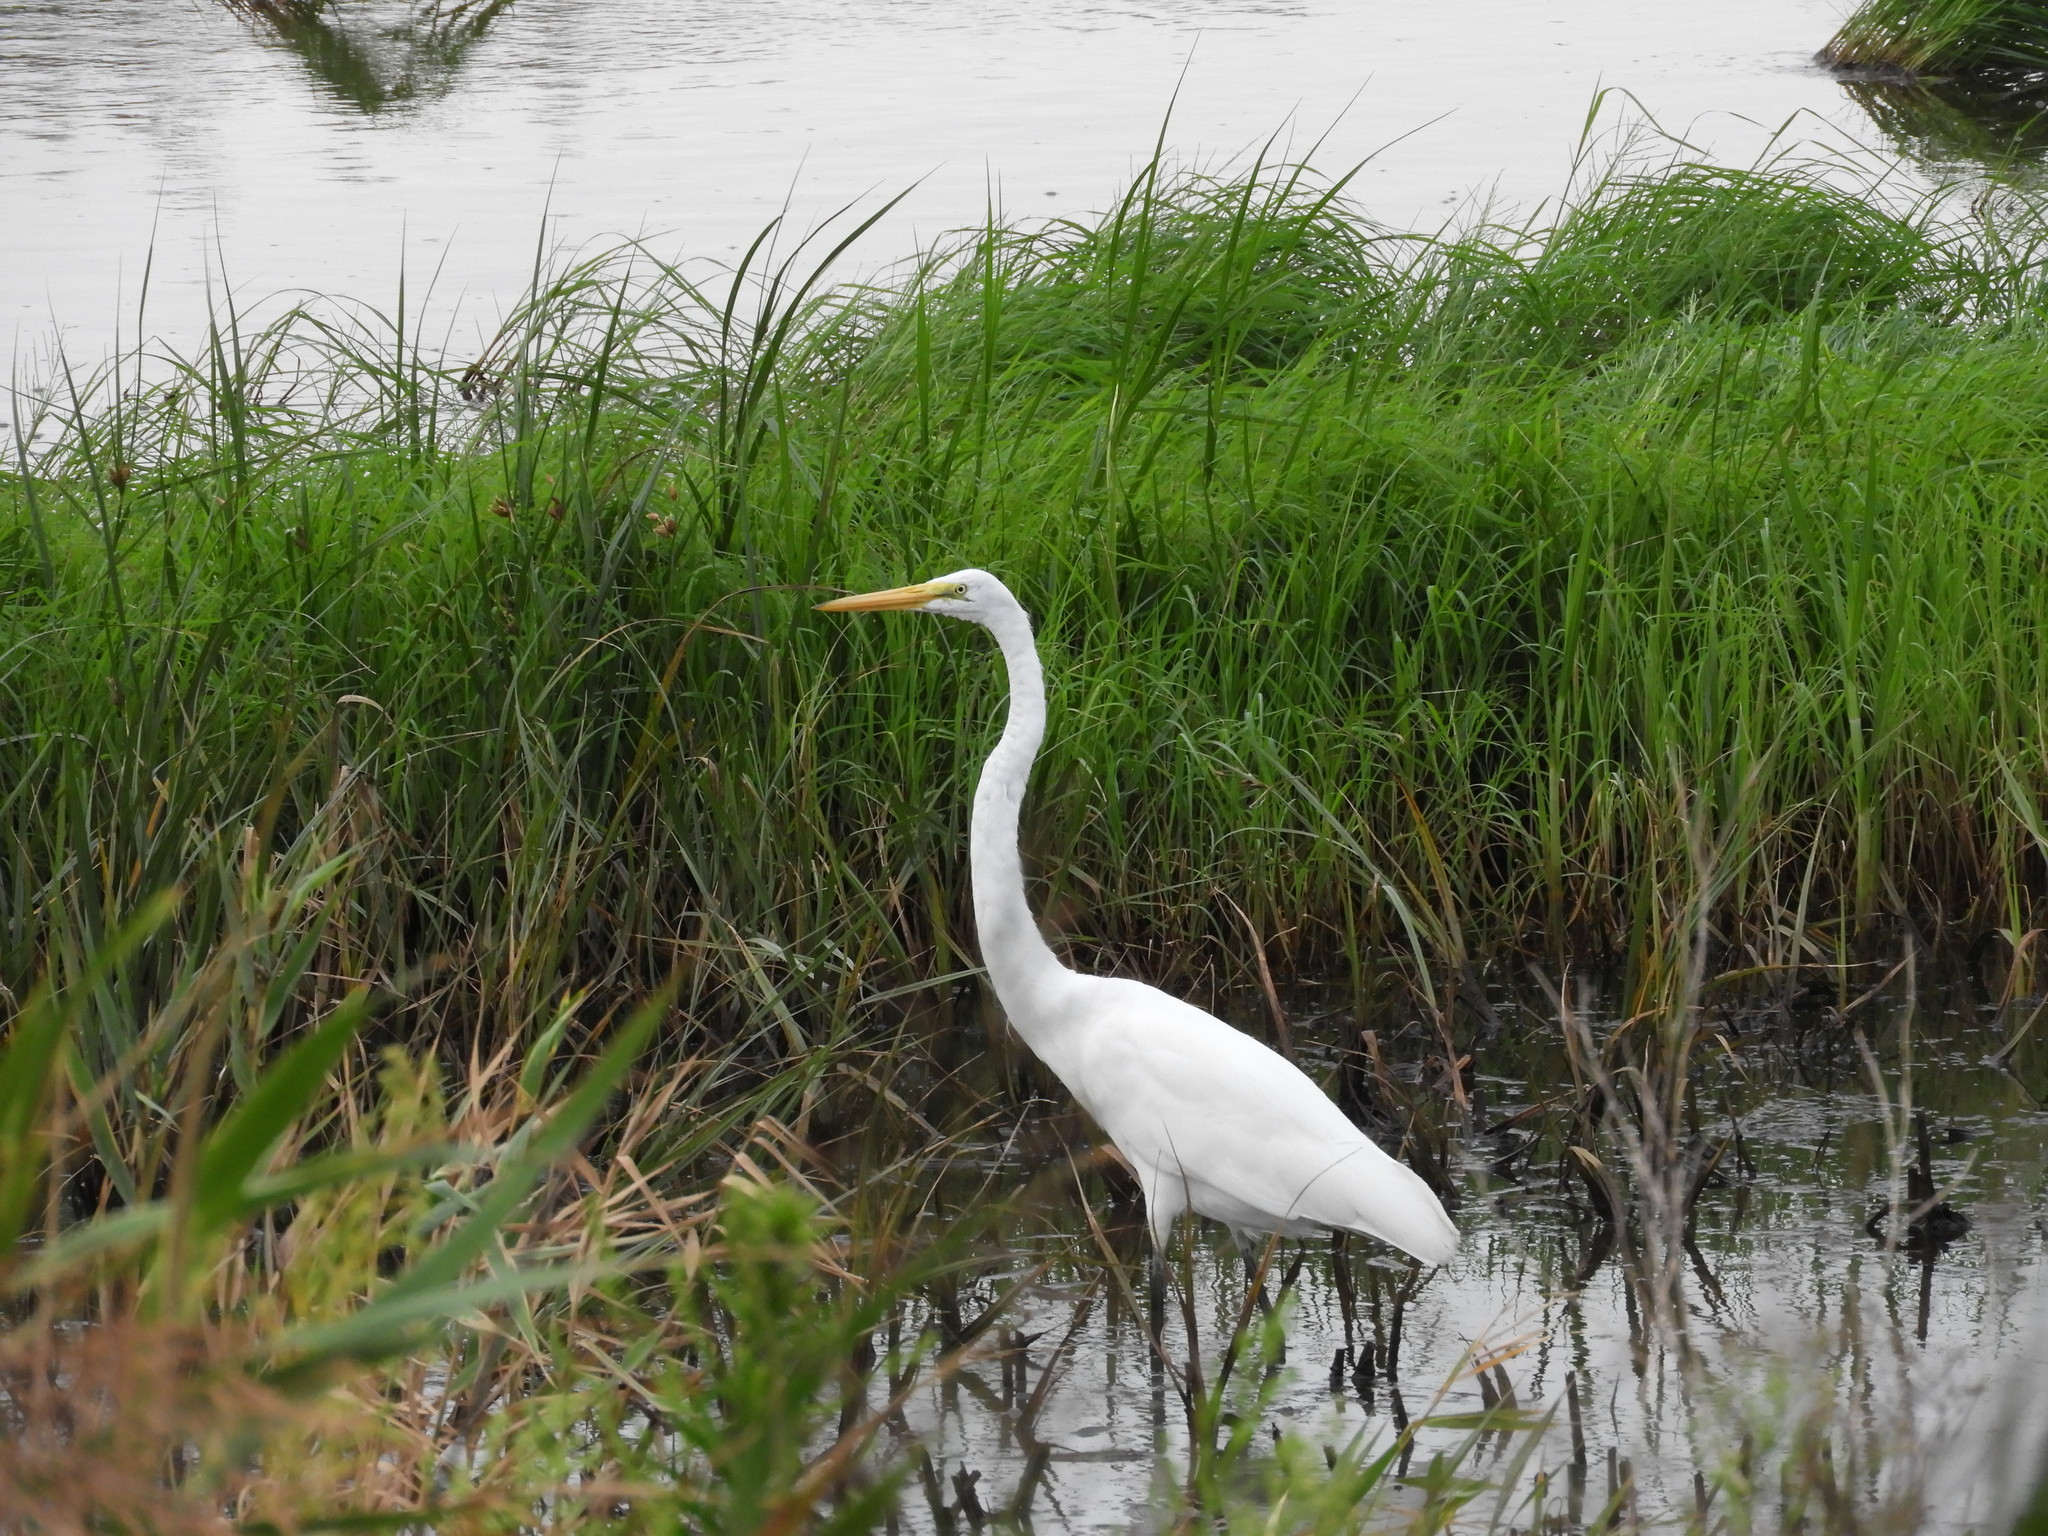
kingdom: Animalia
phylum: Chordata
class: Aves
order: Pelecaniformes
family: Ardeidae
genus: Ardea
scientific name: Ardea alba
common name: Great egret
